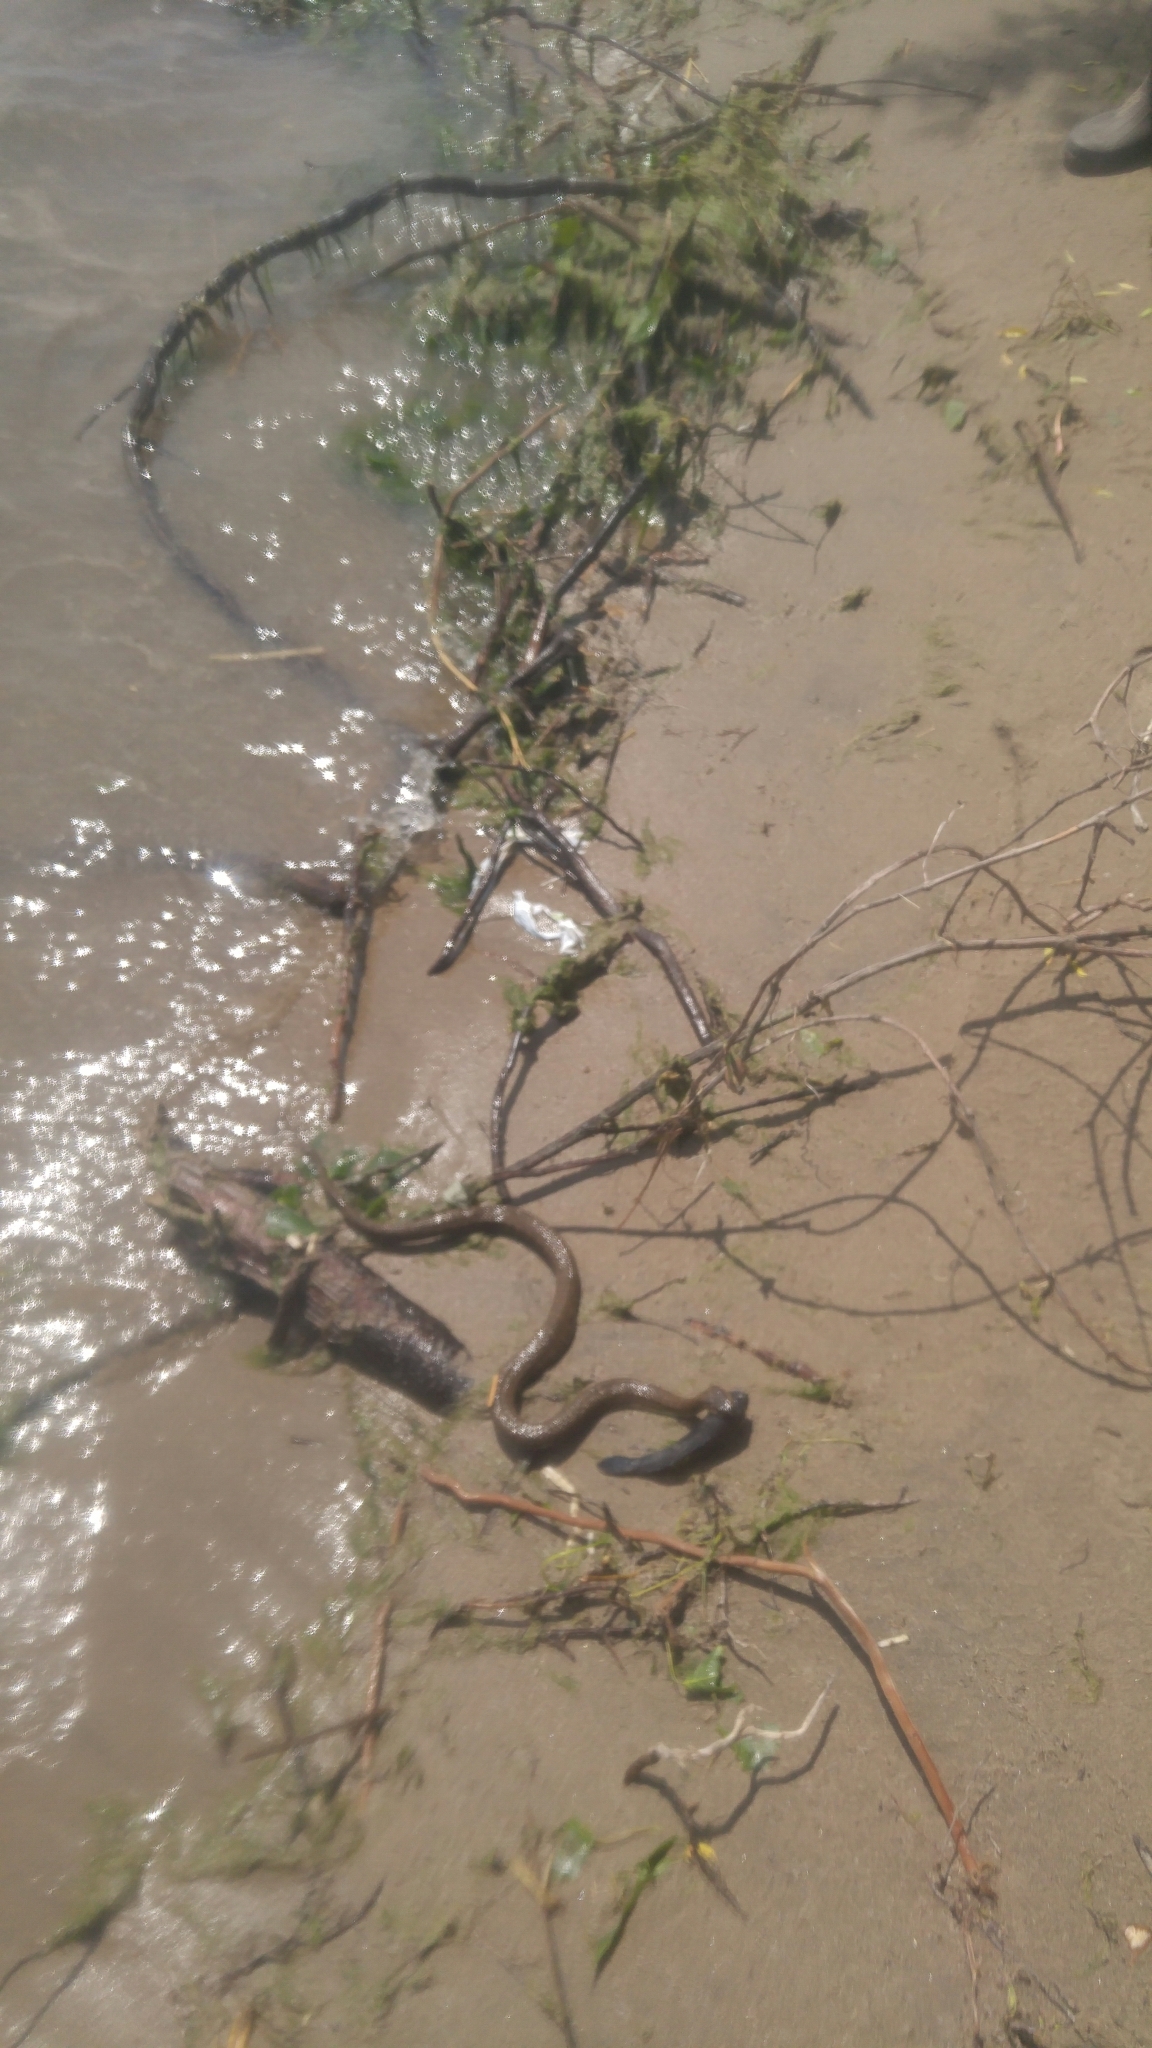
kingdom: Animalia
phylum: Chordata
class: Squamata
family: Colubridae
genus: Nerodia
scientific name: Nerodia sipedon
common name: Northern water snake
